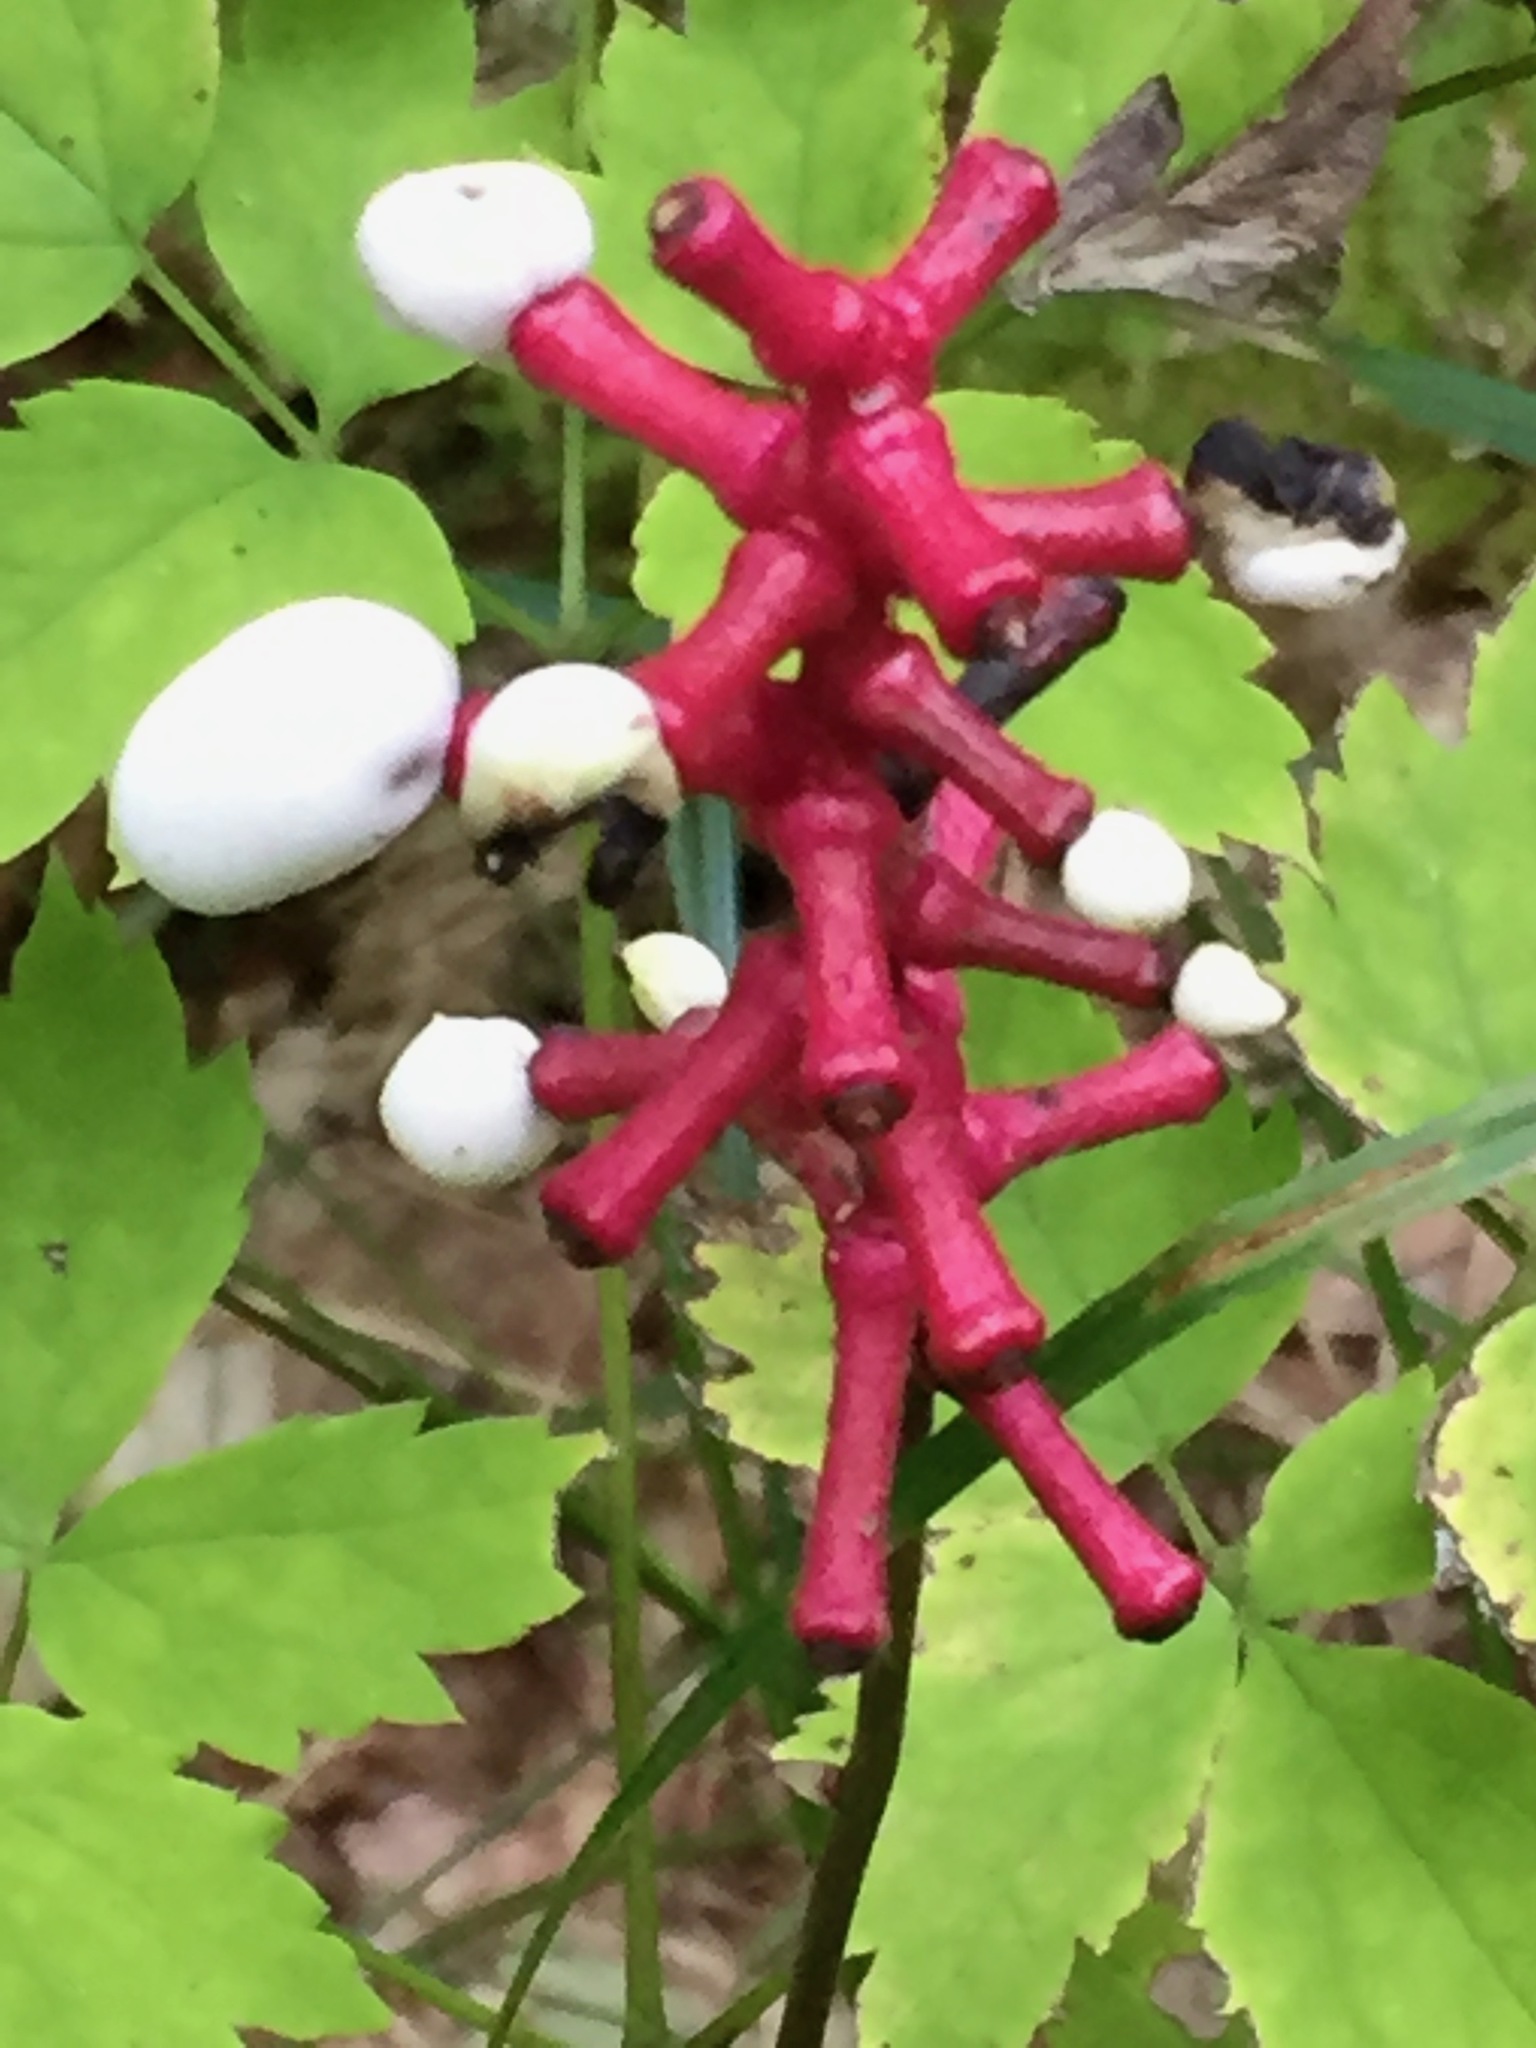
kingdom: Plantae
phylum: Tracheophyta
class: Magnoliopsida
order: Ranunculales
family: Ranunculaceae
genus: Actaea
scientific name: Actaea pachypoda
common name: Doll's-eyes
